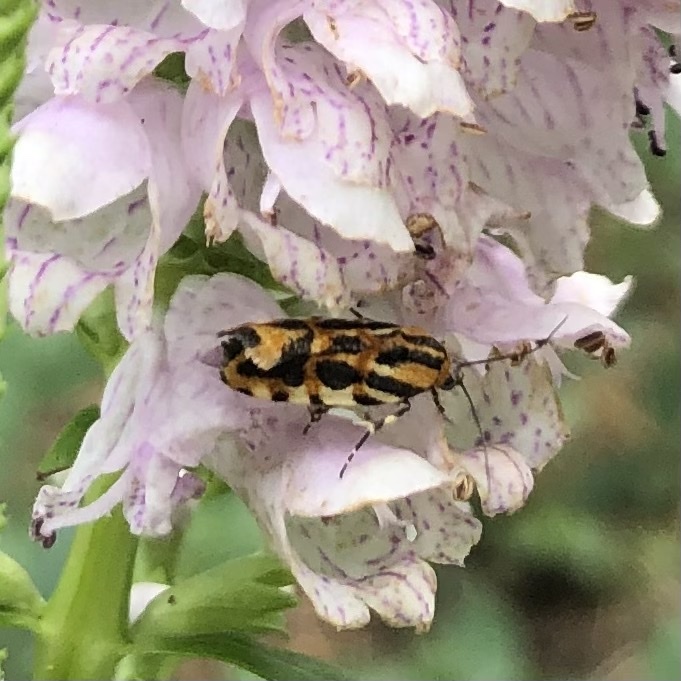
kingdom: Animalia
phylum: Arthropoda
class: Insecta
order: Lepidoptera
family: Noctuidae
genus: Acontia
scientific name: Acontia leo
